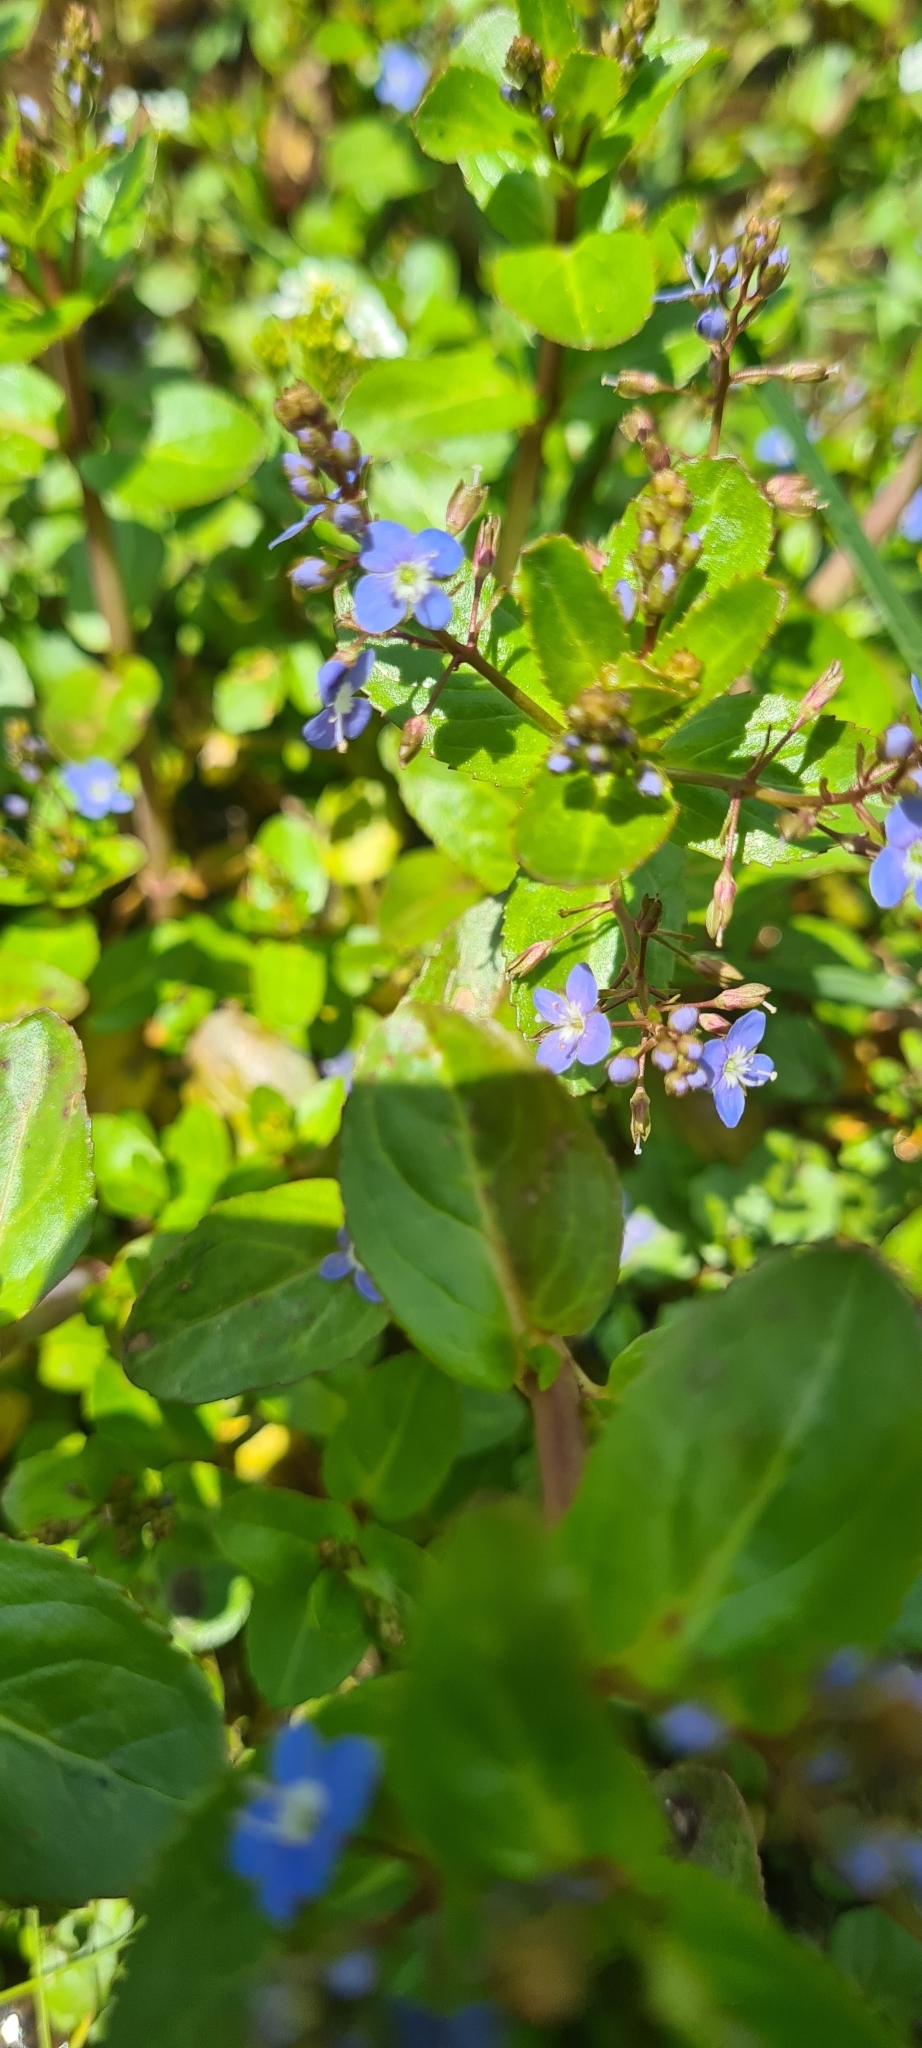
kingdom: Plantae
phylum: Tracheophyta
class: Magnoliopsida
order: Lamiales
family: Plantaginaceae
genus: Veronica
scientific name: Veronica beccabunga
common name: Brooklime
